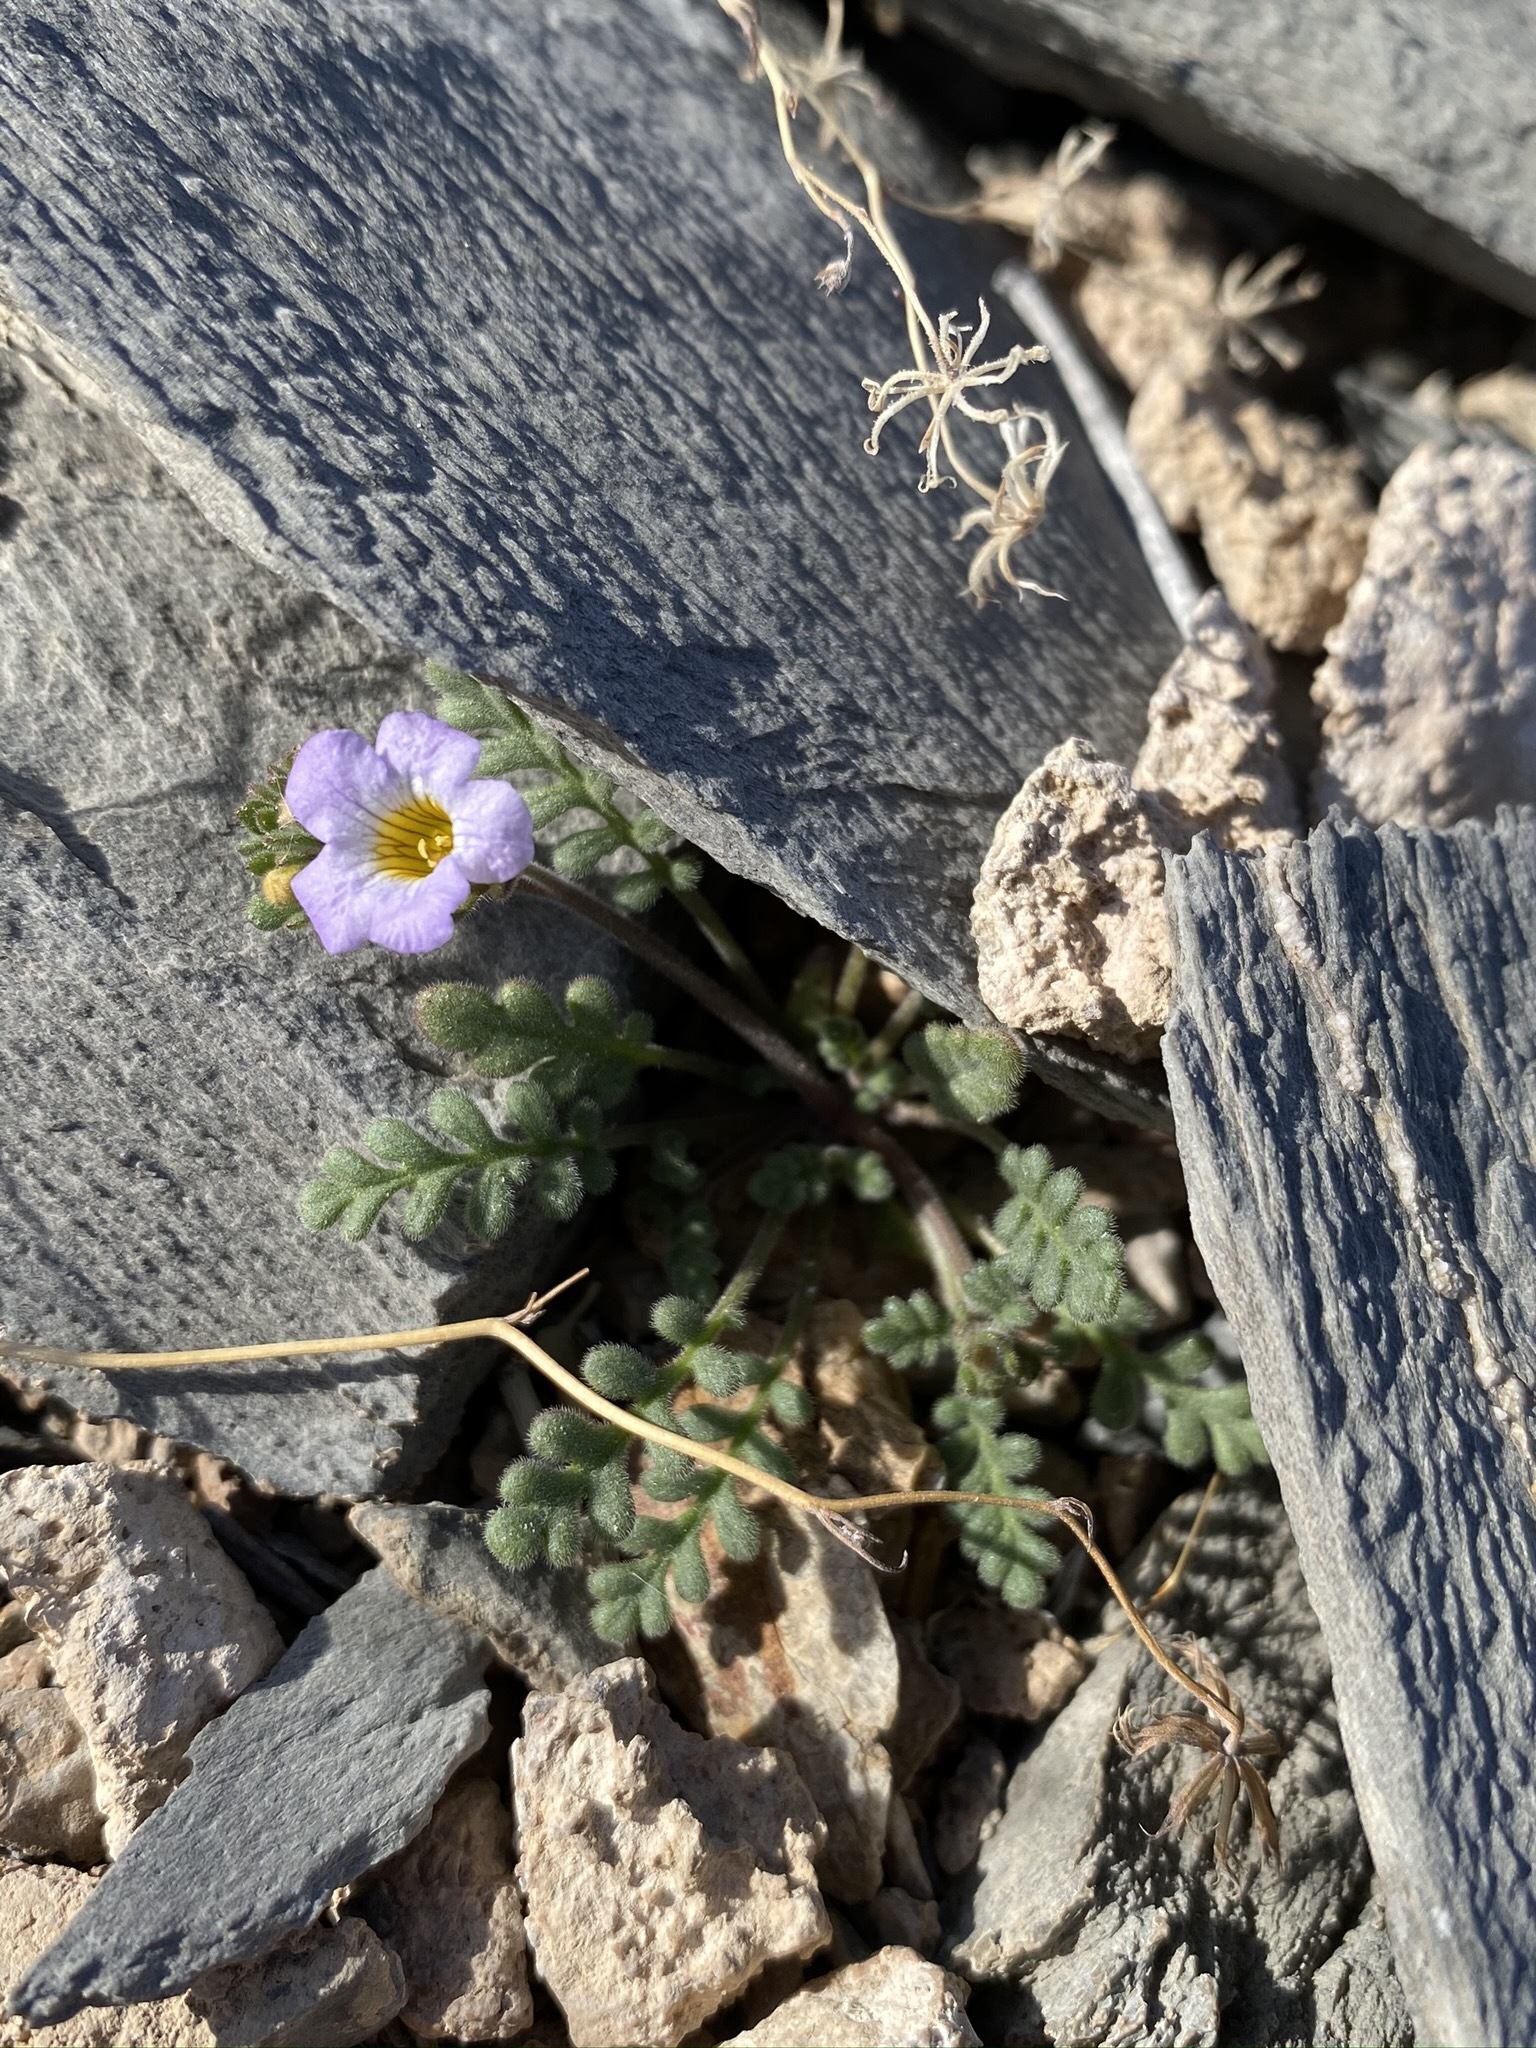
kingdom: Plantae
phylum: Tracheophyta
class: Magnoliopsida
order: Boraginales
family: Hydrophyllaceae
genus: Phacelia
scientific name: Phacelia fremontii
